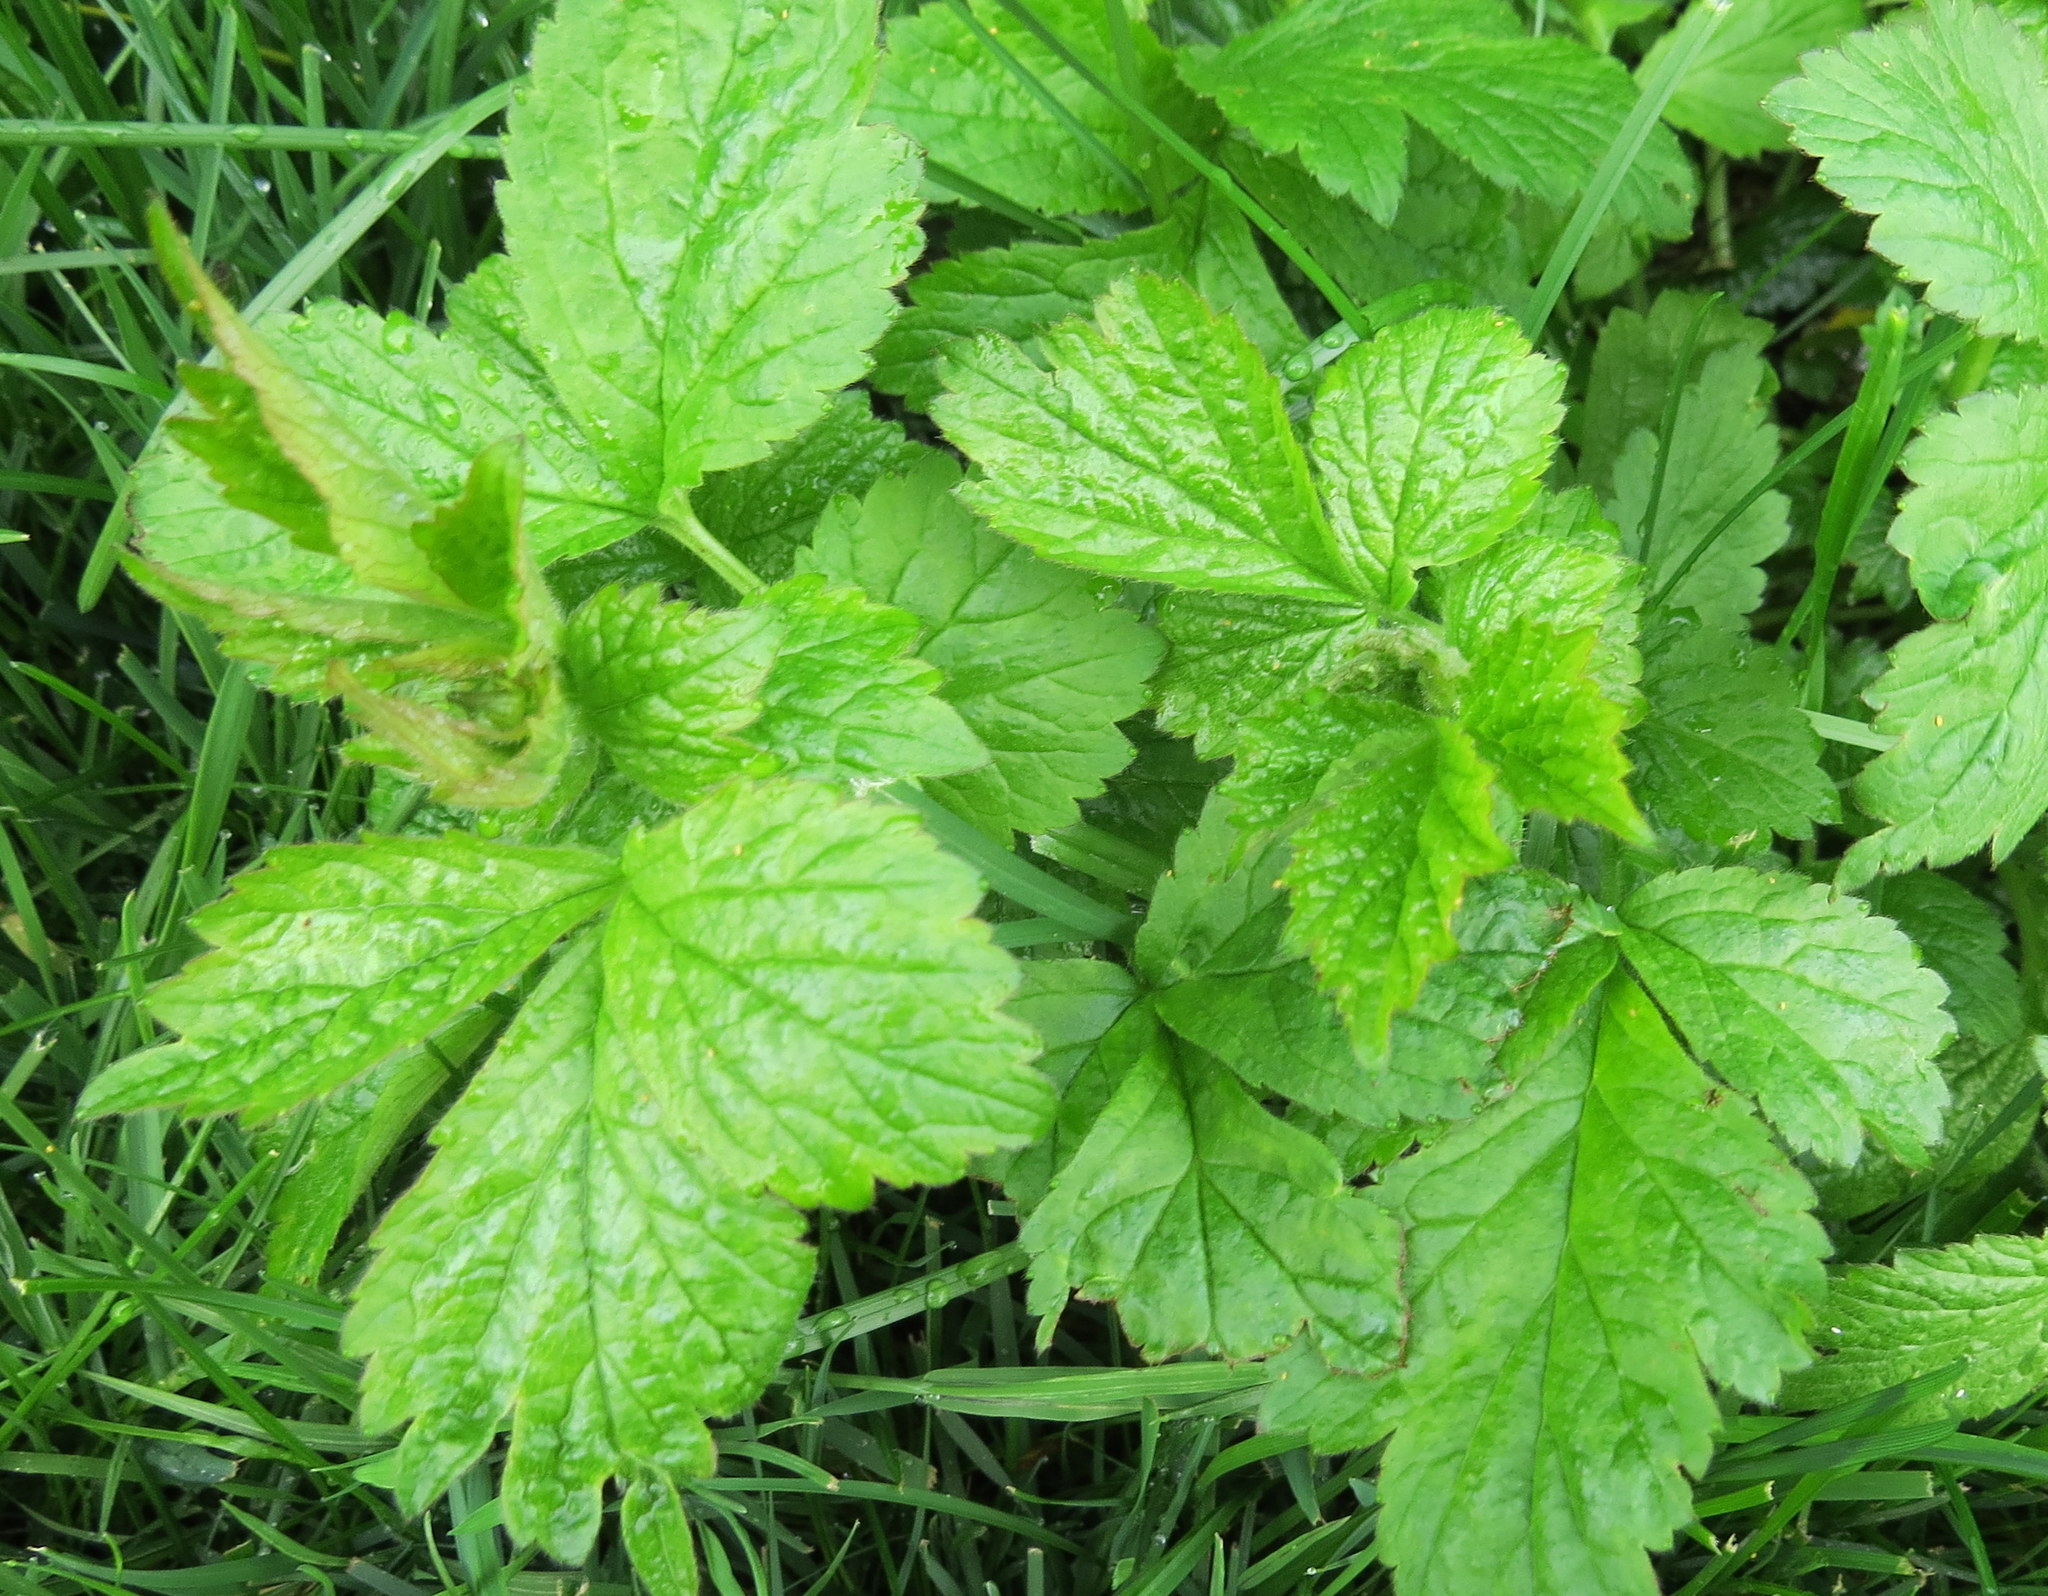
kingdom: Plantae
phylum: Tracheophyta
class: Magnoliopsida
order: Rosales
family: Rosaceae
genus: Geum
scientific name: Geum urbanum
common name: Wood avens
